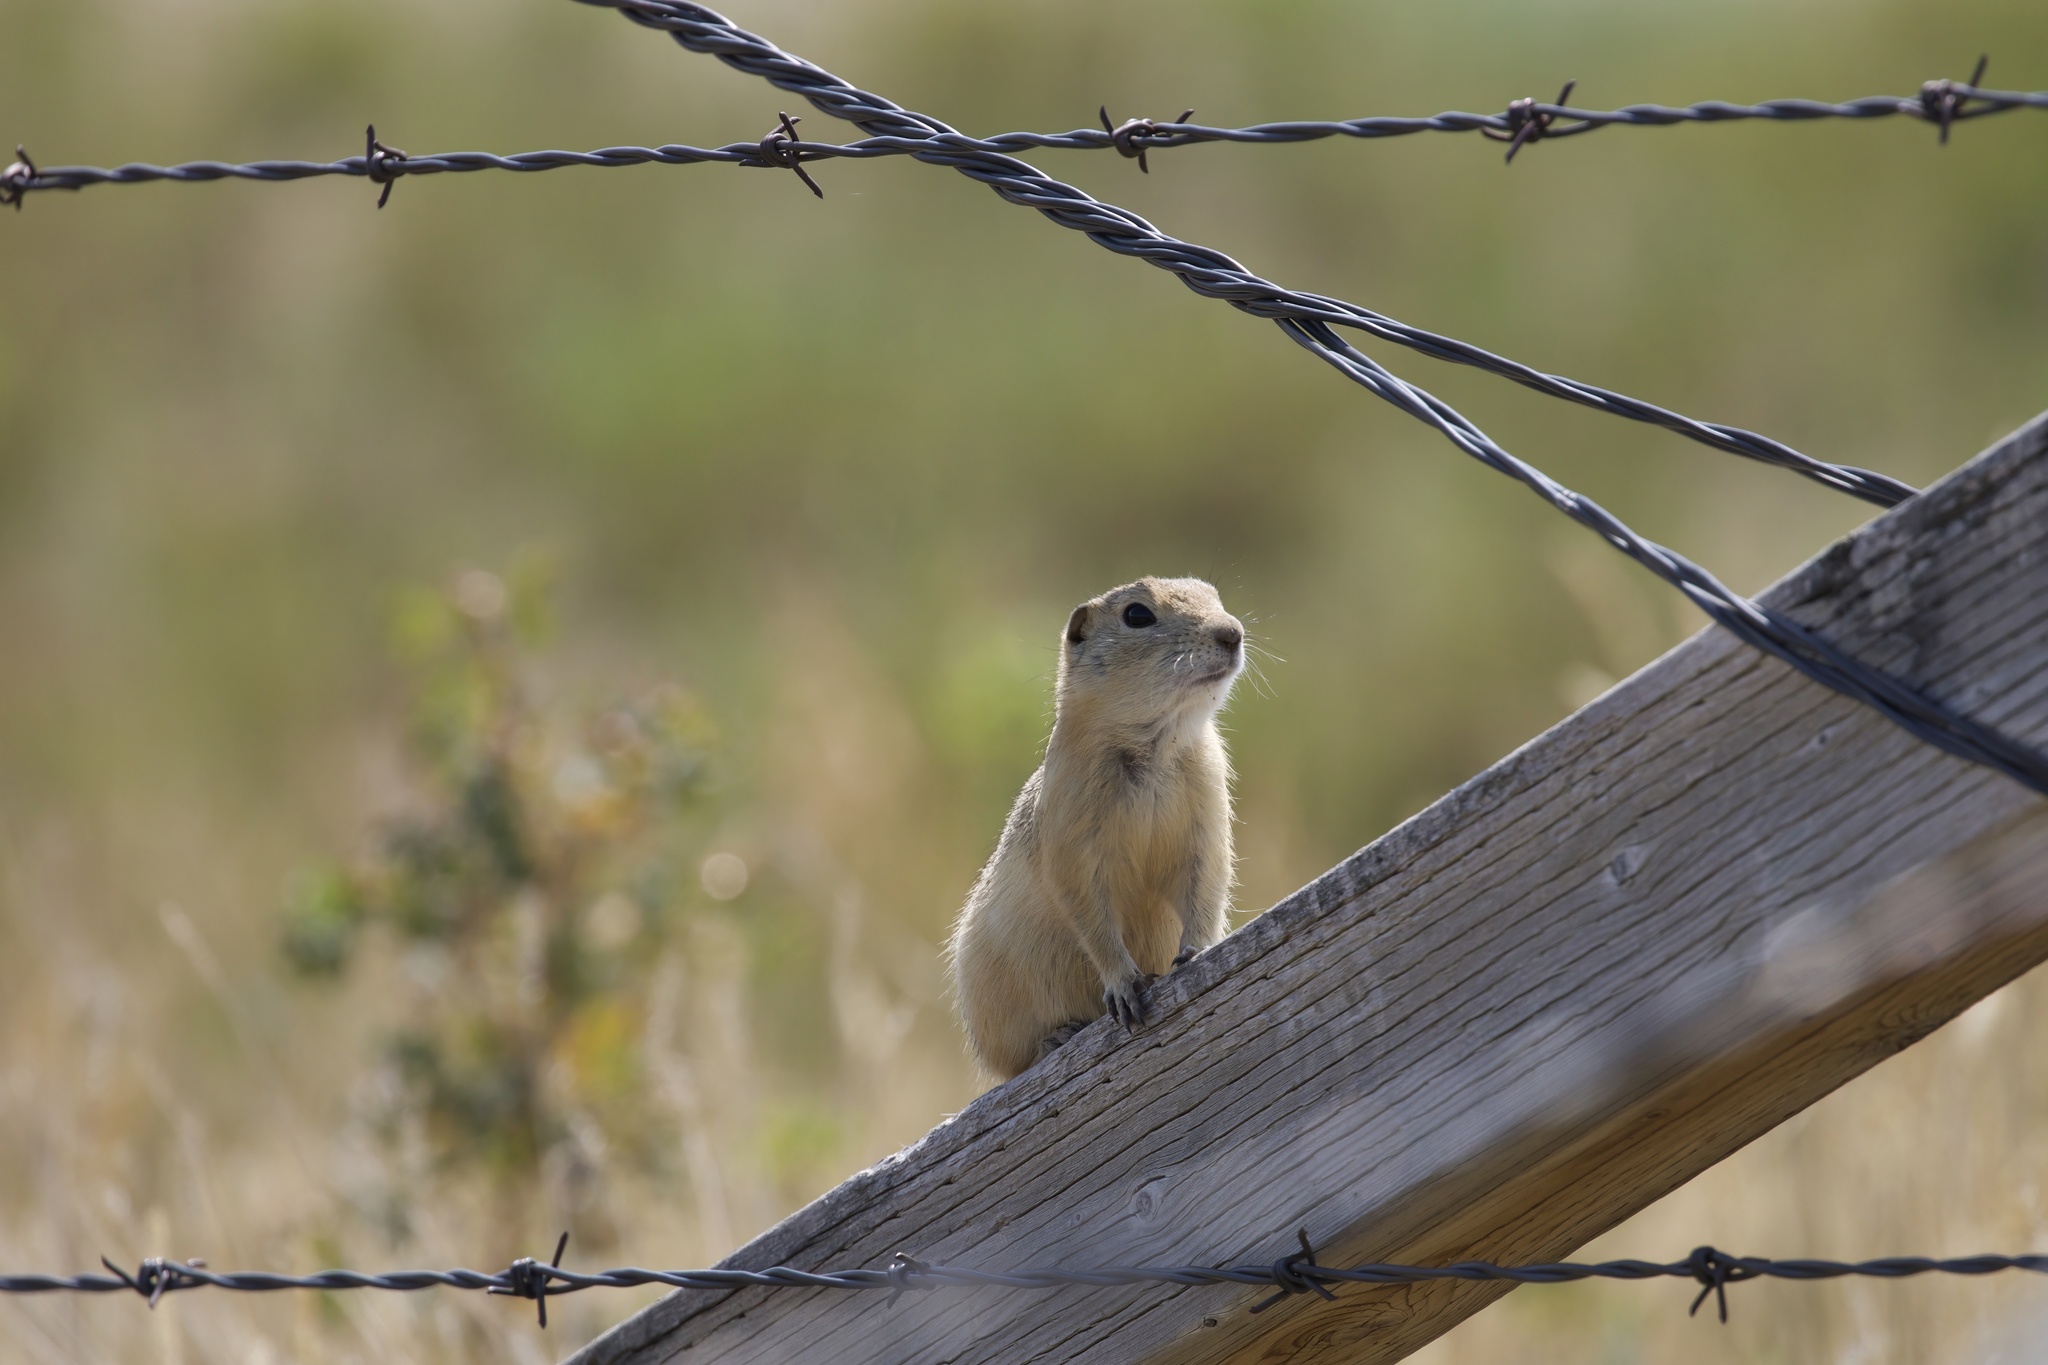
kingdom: Animalia
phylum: Chordata
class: Mammalia
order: Rodentia
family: Sciuridae
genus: Urocitellus
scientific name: Urocitellus richardsonii
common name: Richardson's ground squirrel
